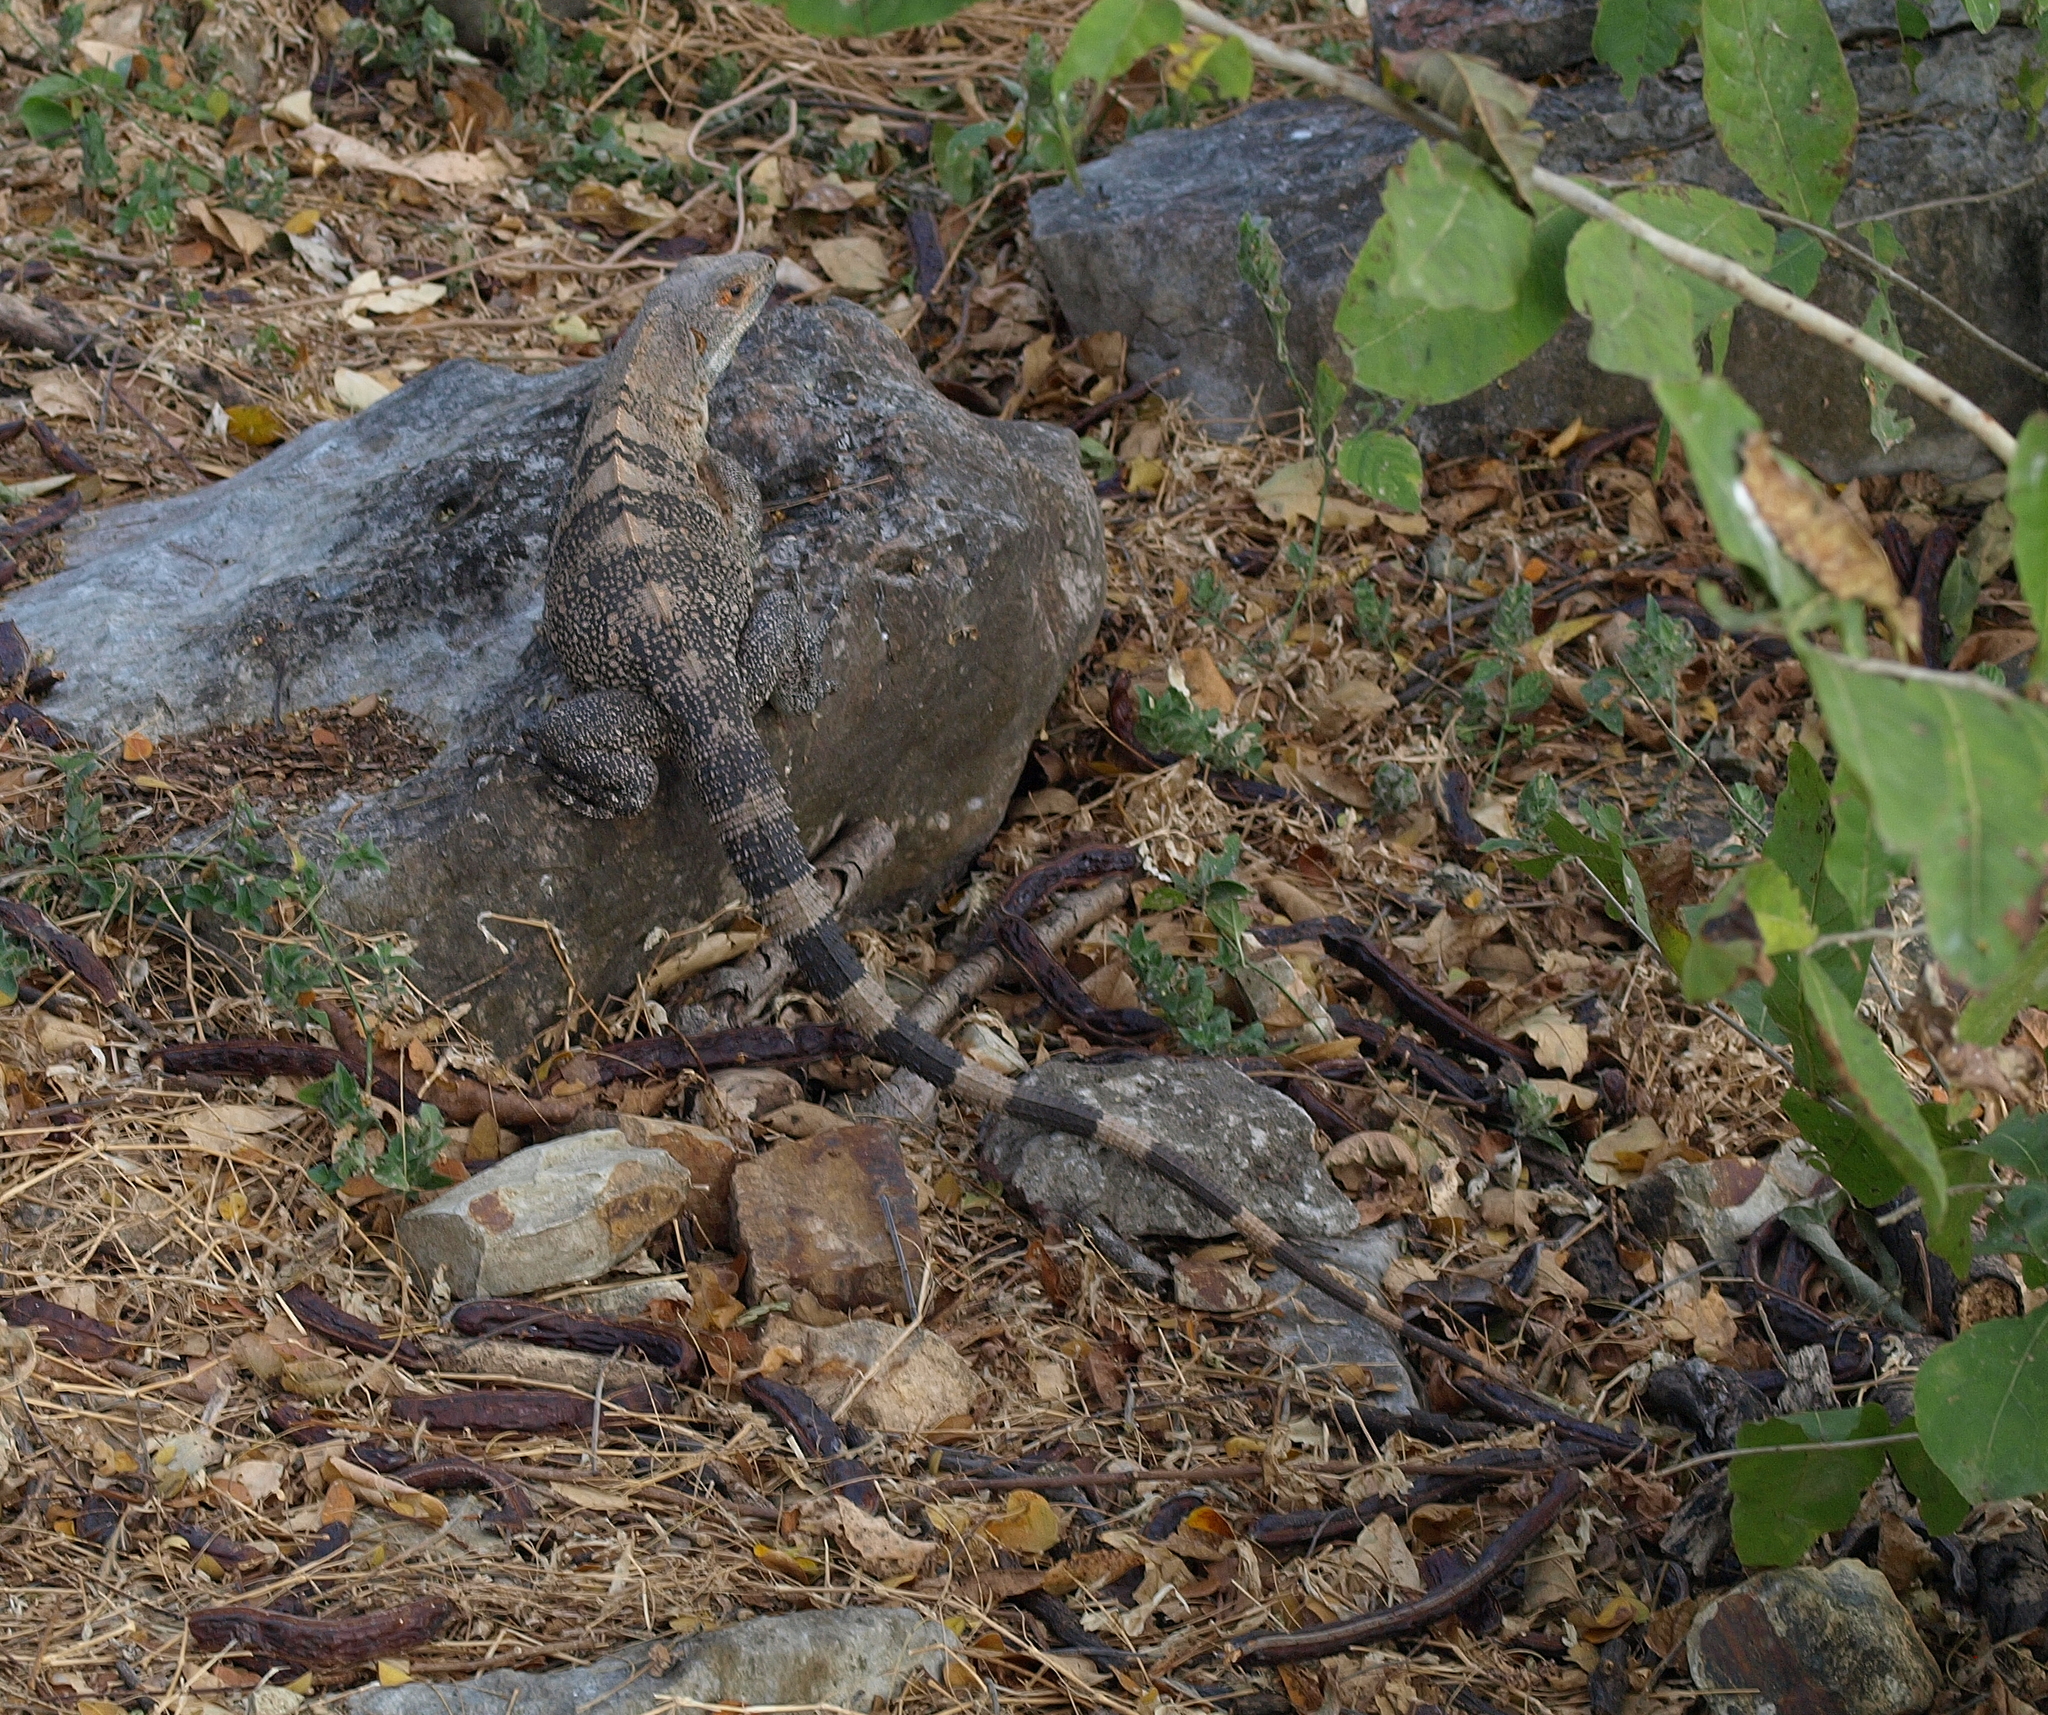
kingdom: Animalia
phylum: Chordata
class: Squamata
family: Iguanidae
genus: Ctenosaura
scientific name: Ctenosaura similis
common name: Black spiny-tailed iguana
